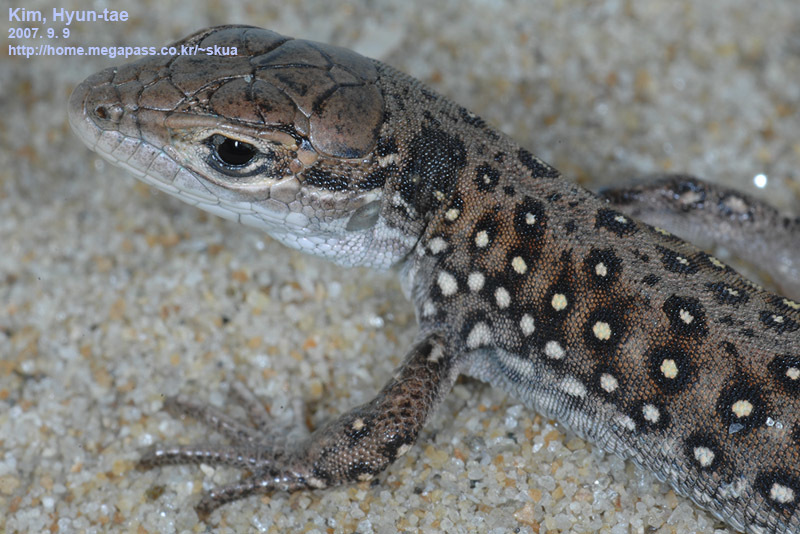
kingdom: Animalia
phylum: Chordata
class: Squamata
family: Lacertidae
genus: Eremias
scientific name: Eremias argus
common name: Mongolia racerunner
